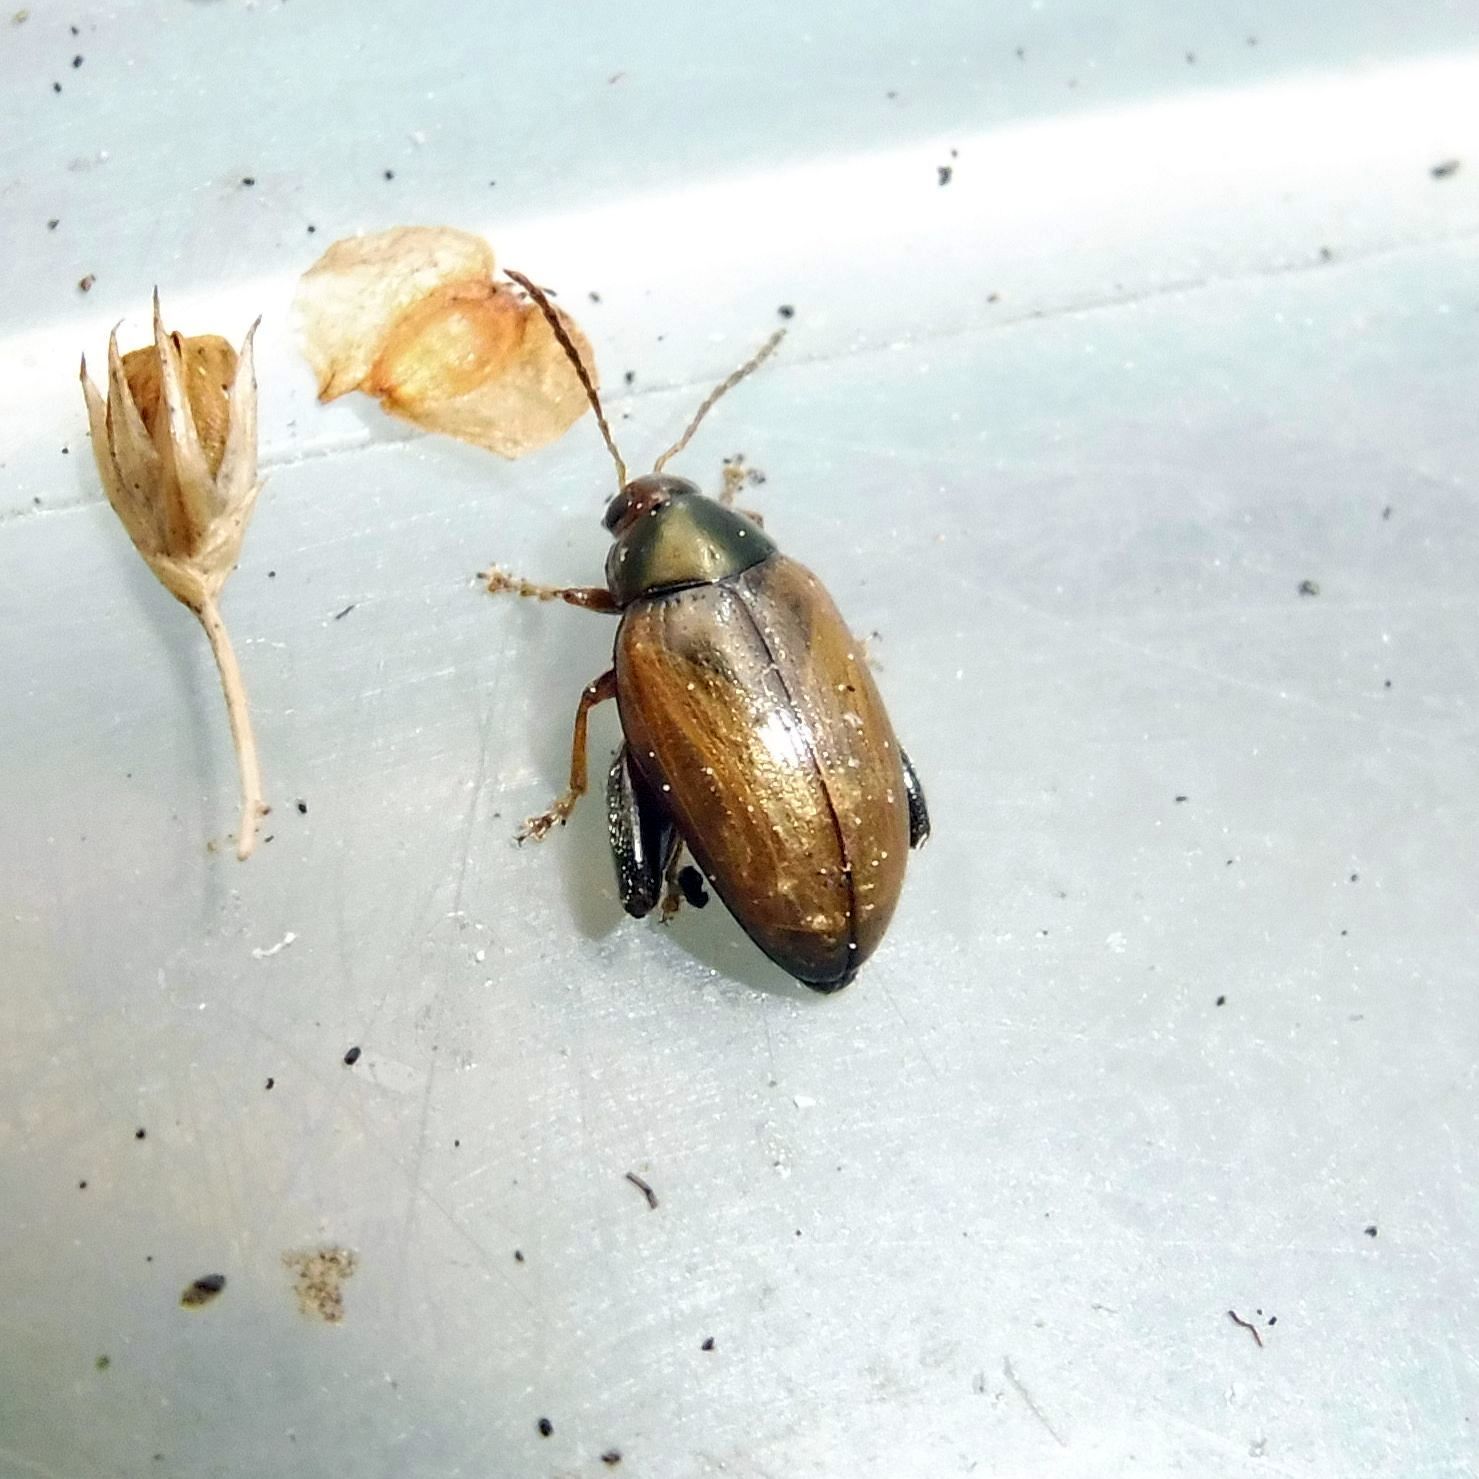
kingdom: Animalia
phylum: Arthropoda
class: Insecta
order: Coleoptera
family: Chrysomelidae
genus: Psylliodes
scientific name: Psylliodes chrysocephalus
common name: Cabbage-stem flea beetle
